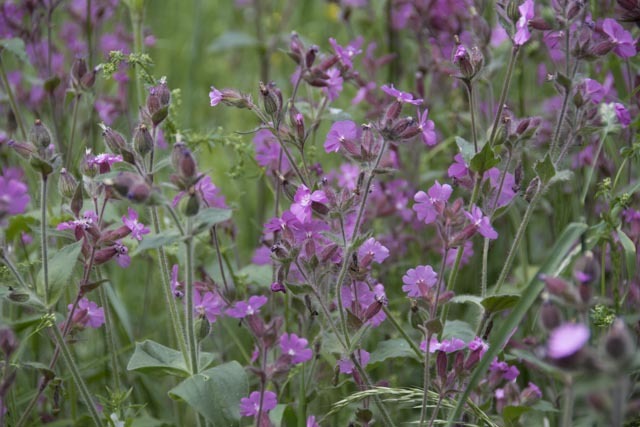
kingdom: Plantae
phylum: Tracheophyta
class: Magnoliopsida
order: Caryophyllales
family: Caryophyllaceae
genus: Silene
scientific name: Silene dioica
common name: Red campion
